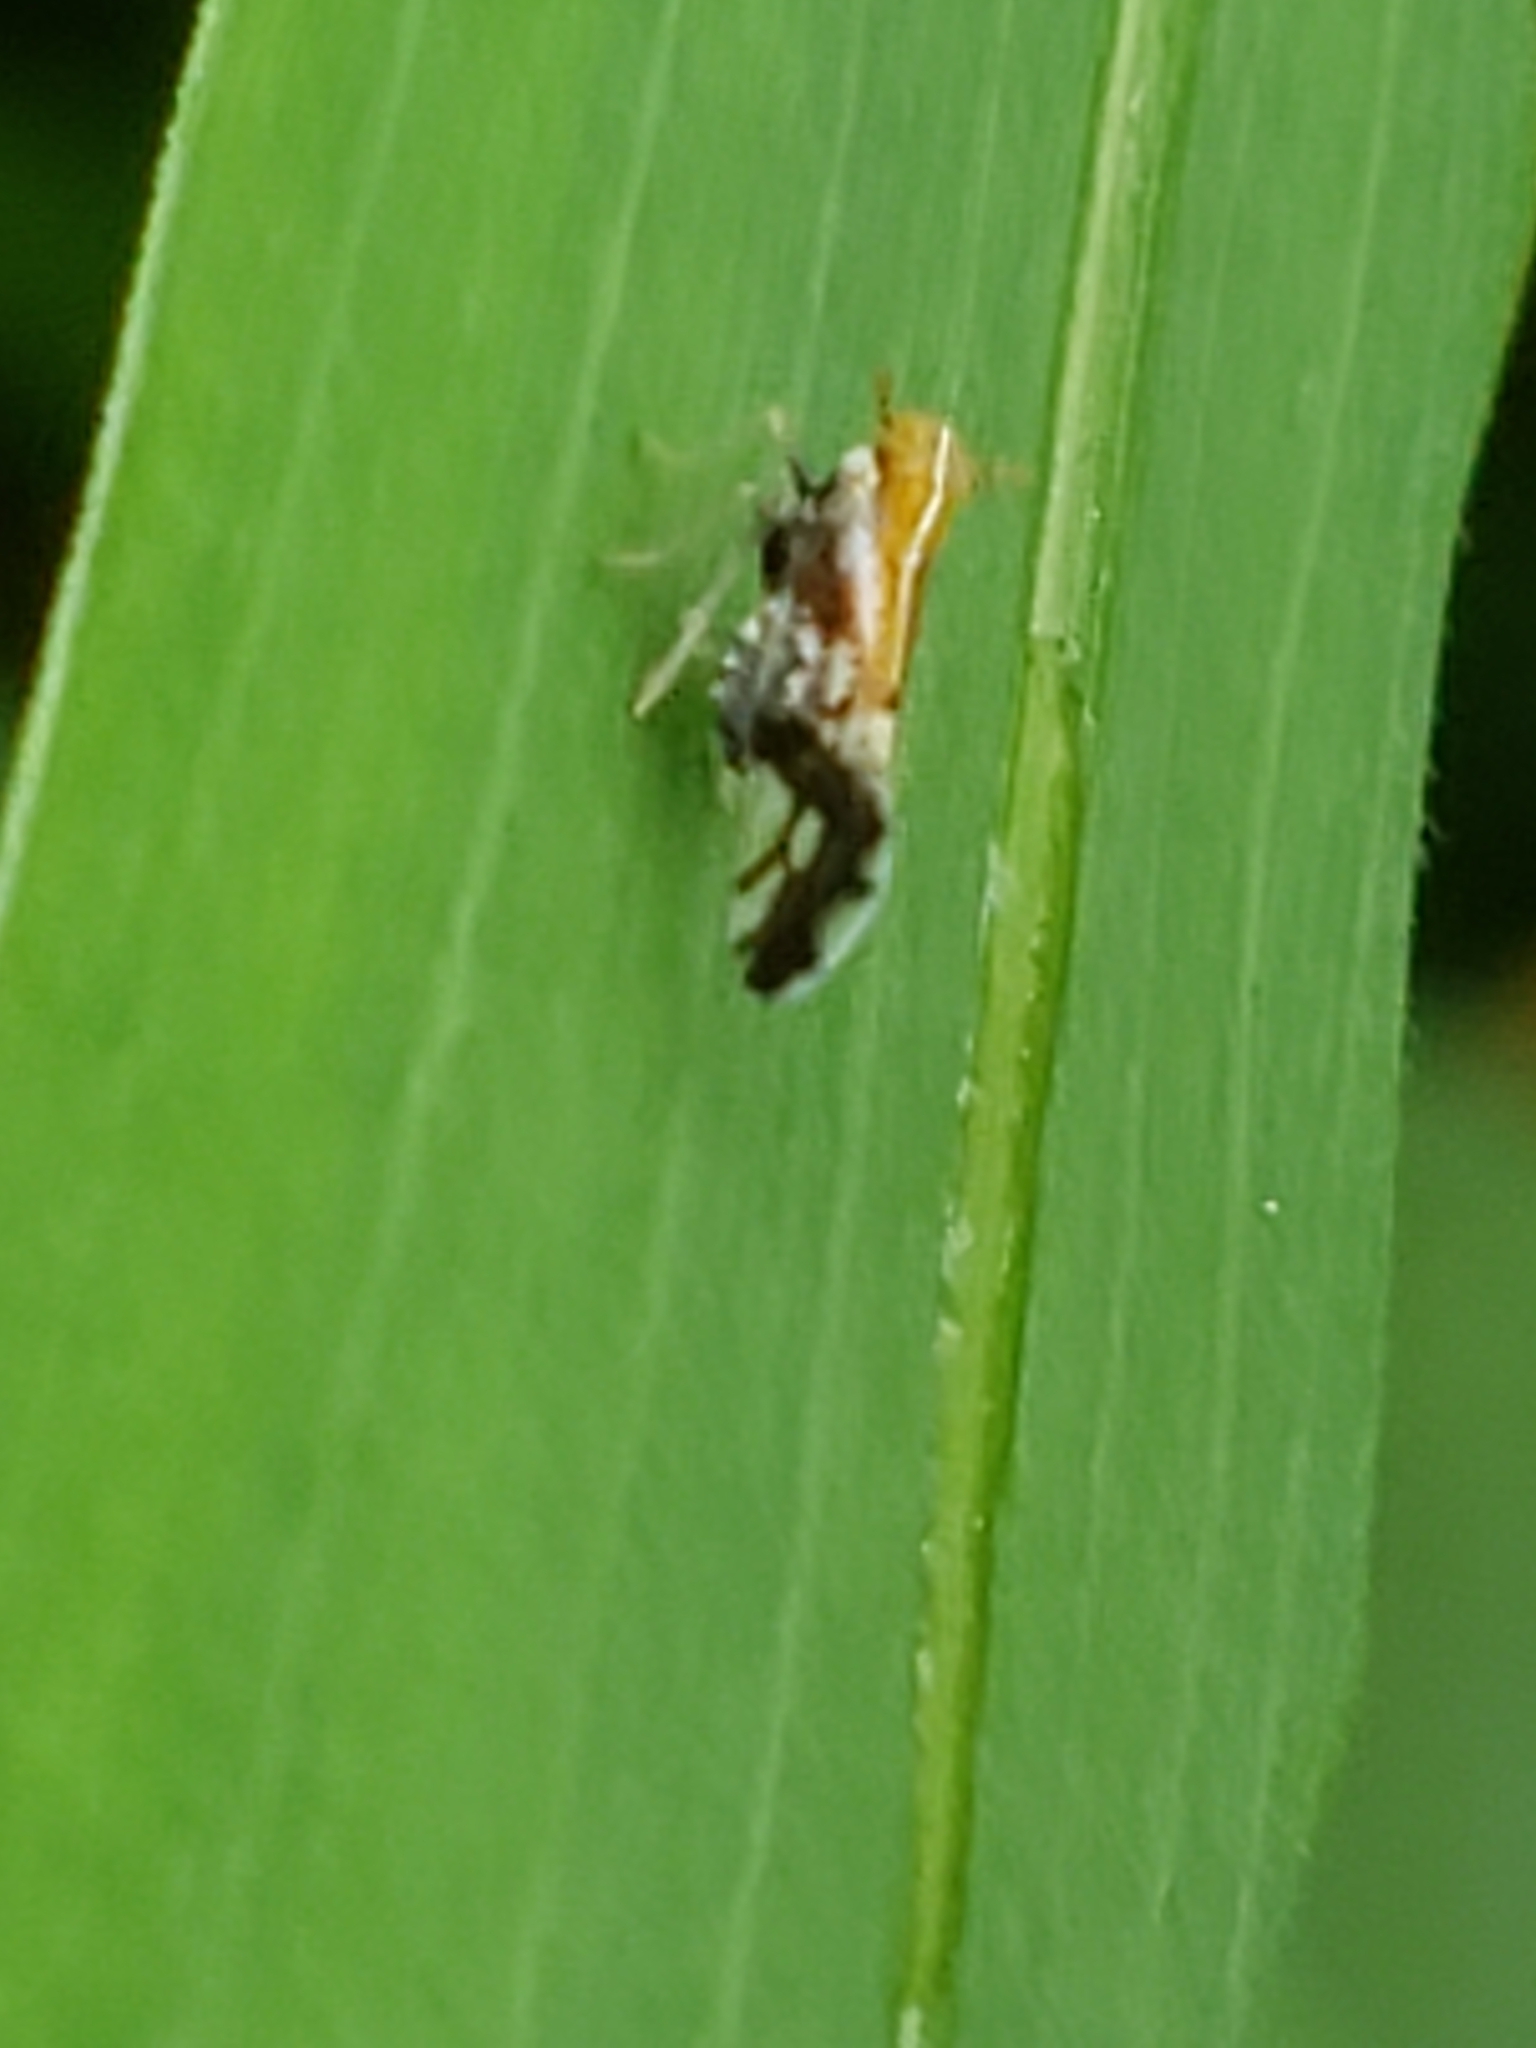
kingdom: Animalia
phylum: Arthropoda
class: Insecta
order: Hemiptera
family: Delphacidae
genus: Liburniella
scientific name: Liburniella ornata
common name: Ornate planthopper
